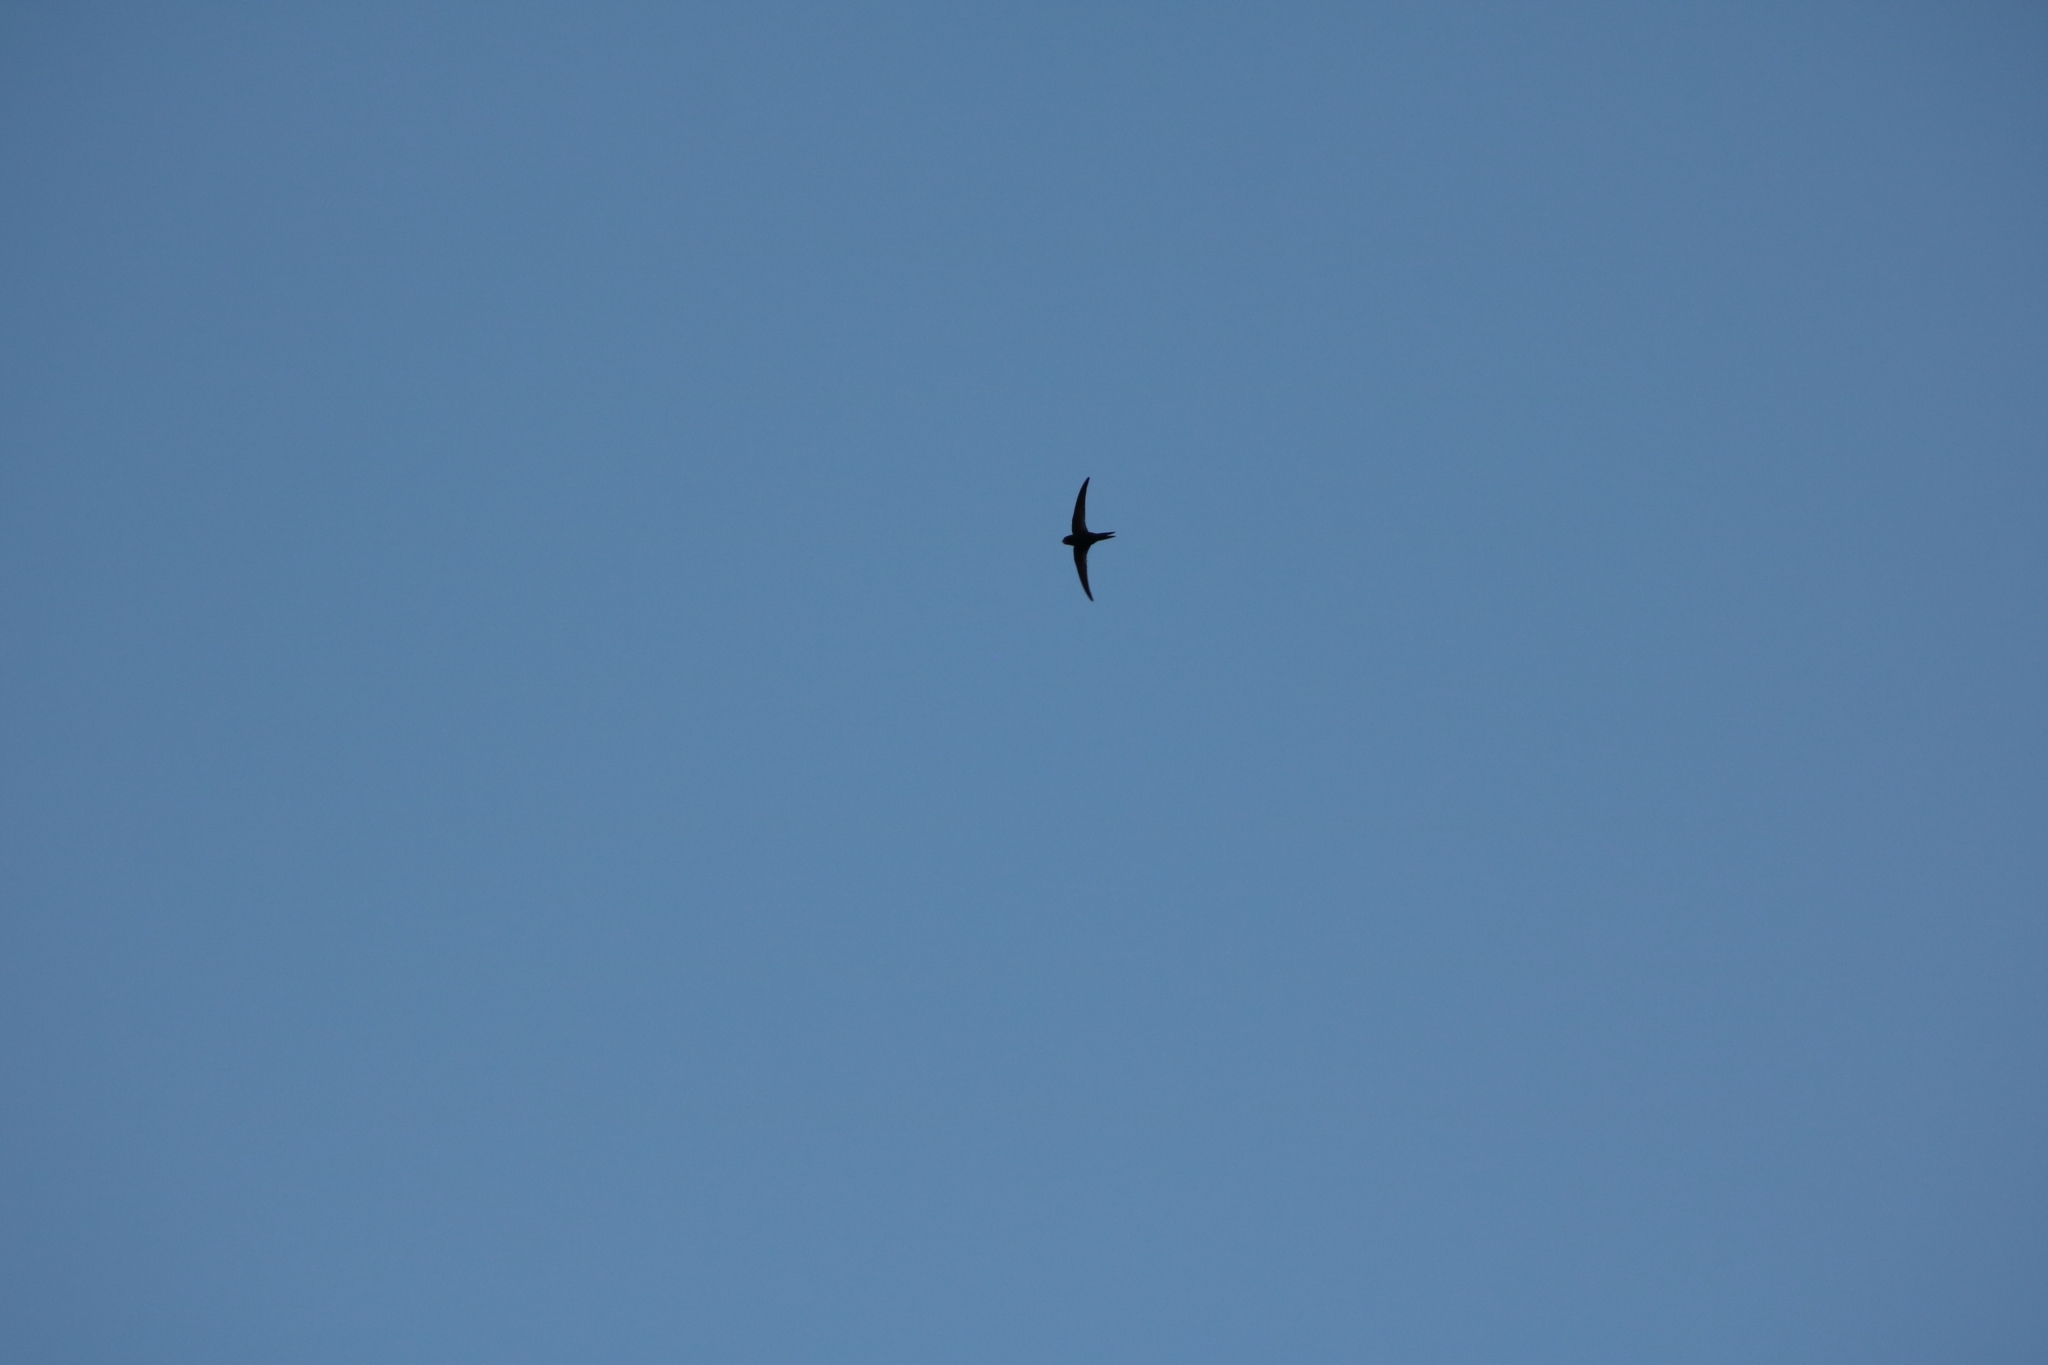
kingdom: Animalia
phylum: Chordata
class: Aves
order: Apodiformes
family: Apodidae
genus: Apus
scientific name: Apus apus
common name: Common swift
